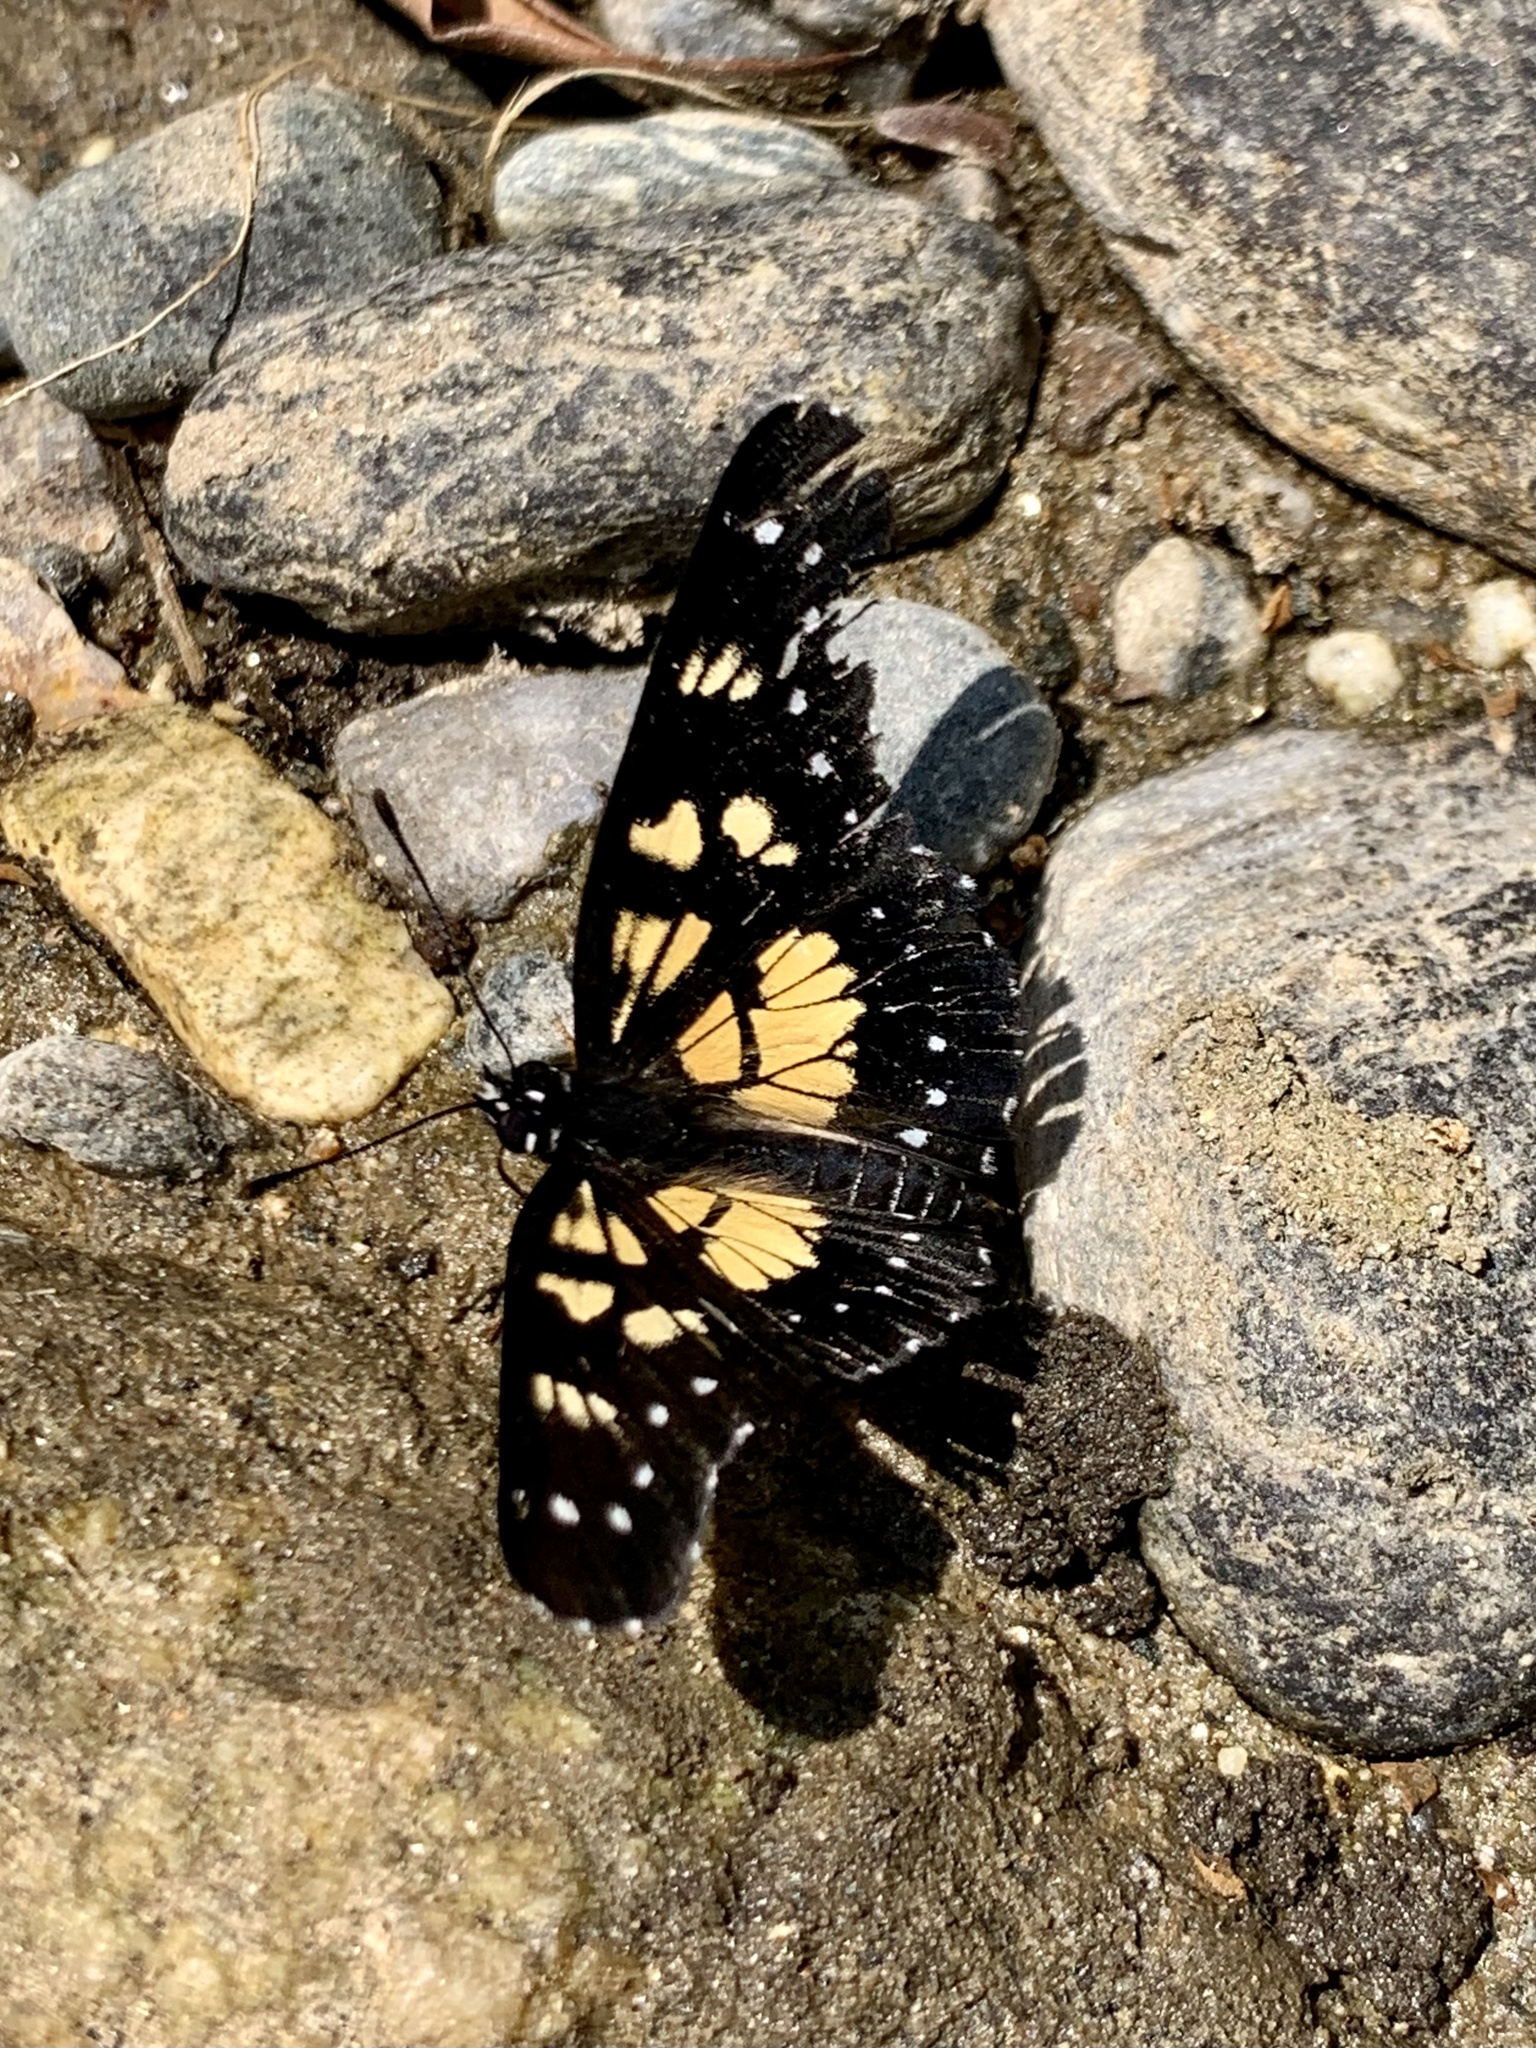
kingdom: Animalia
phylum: Arthropoda
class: Insecta
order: Lepidoptera
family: Nymphalidae
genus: Chlosyne
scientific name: Chlosyne narva
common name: Narva checkerspot
